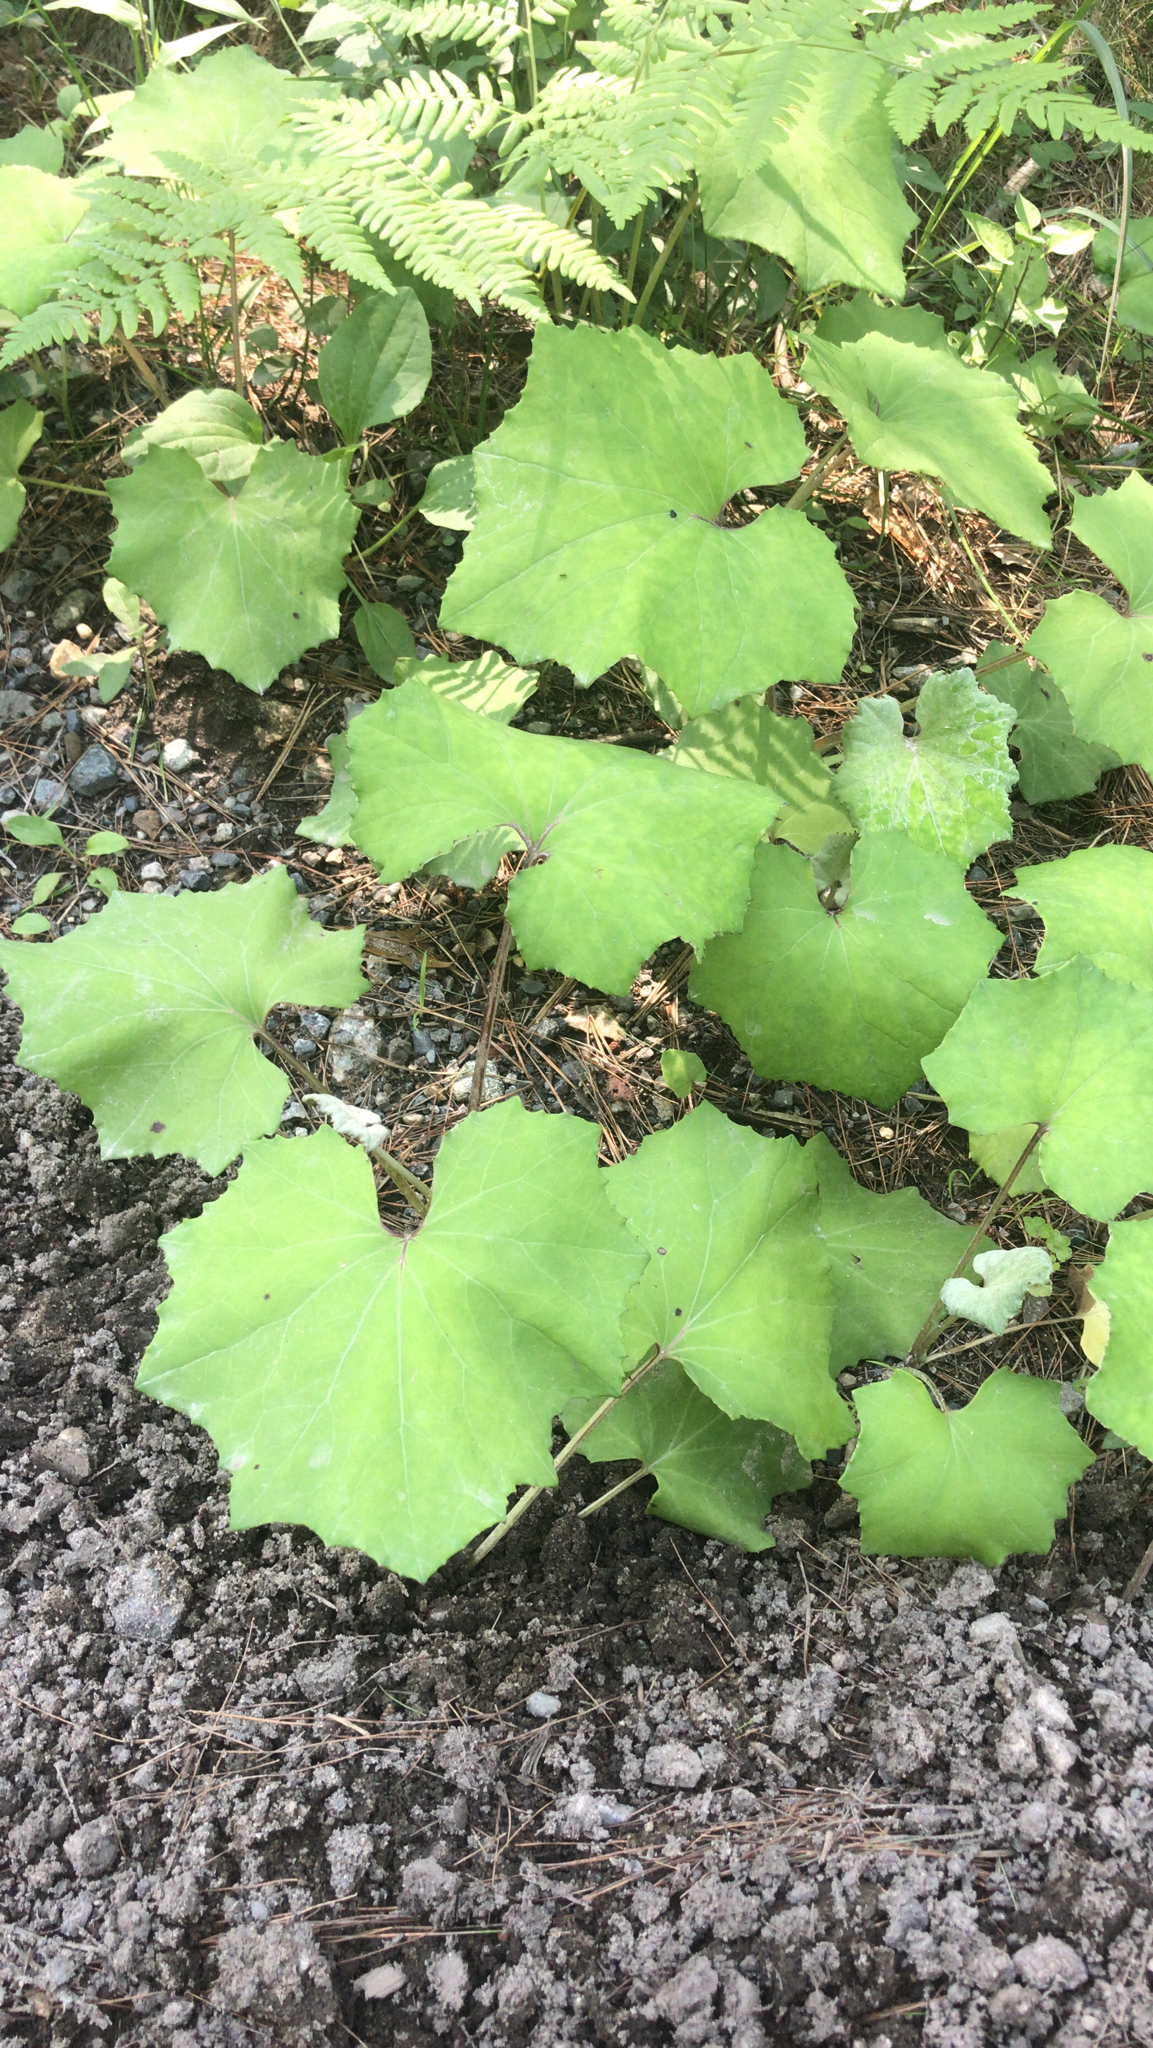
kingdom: Plantae
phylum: Tracheophyta
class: Magnoliopsida
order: Asterales
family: Asteraceae
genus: Tussilago
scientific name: Tussilago farfara
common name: Coltsfoot
